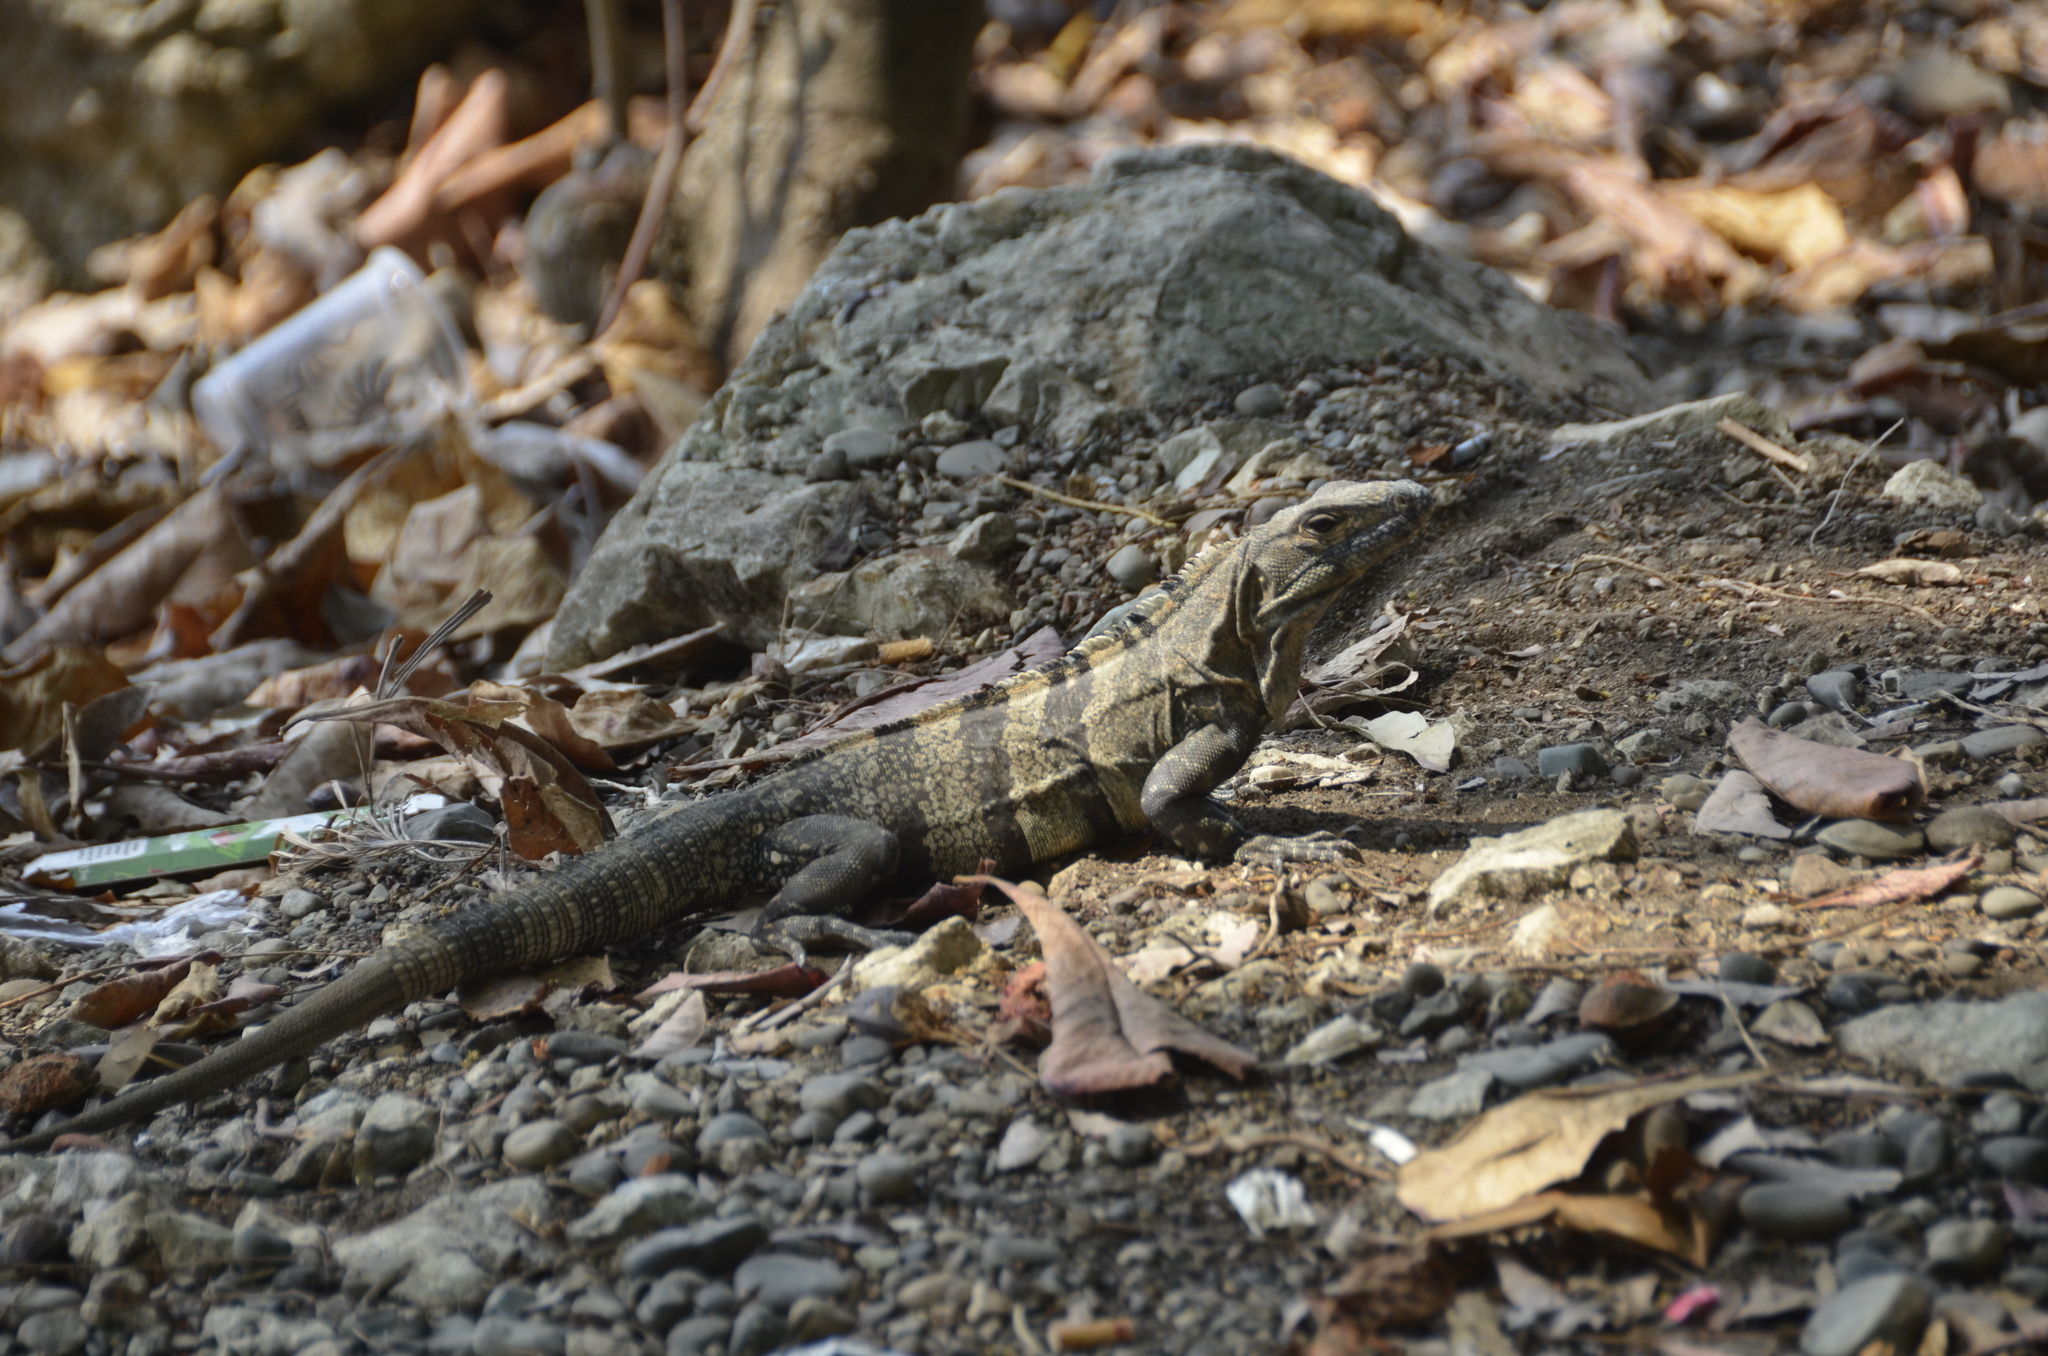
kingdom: Animalia
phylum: Chordata
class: Squamata
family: Iguanidae
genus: Ctenosaura
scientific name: Ctenosaura similis
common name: Black spiny-tailed iguana
